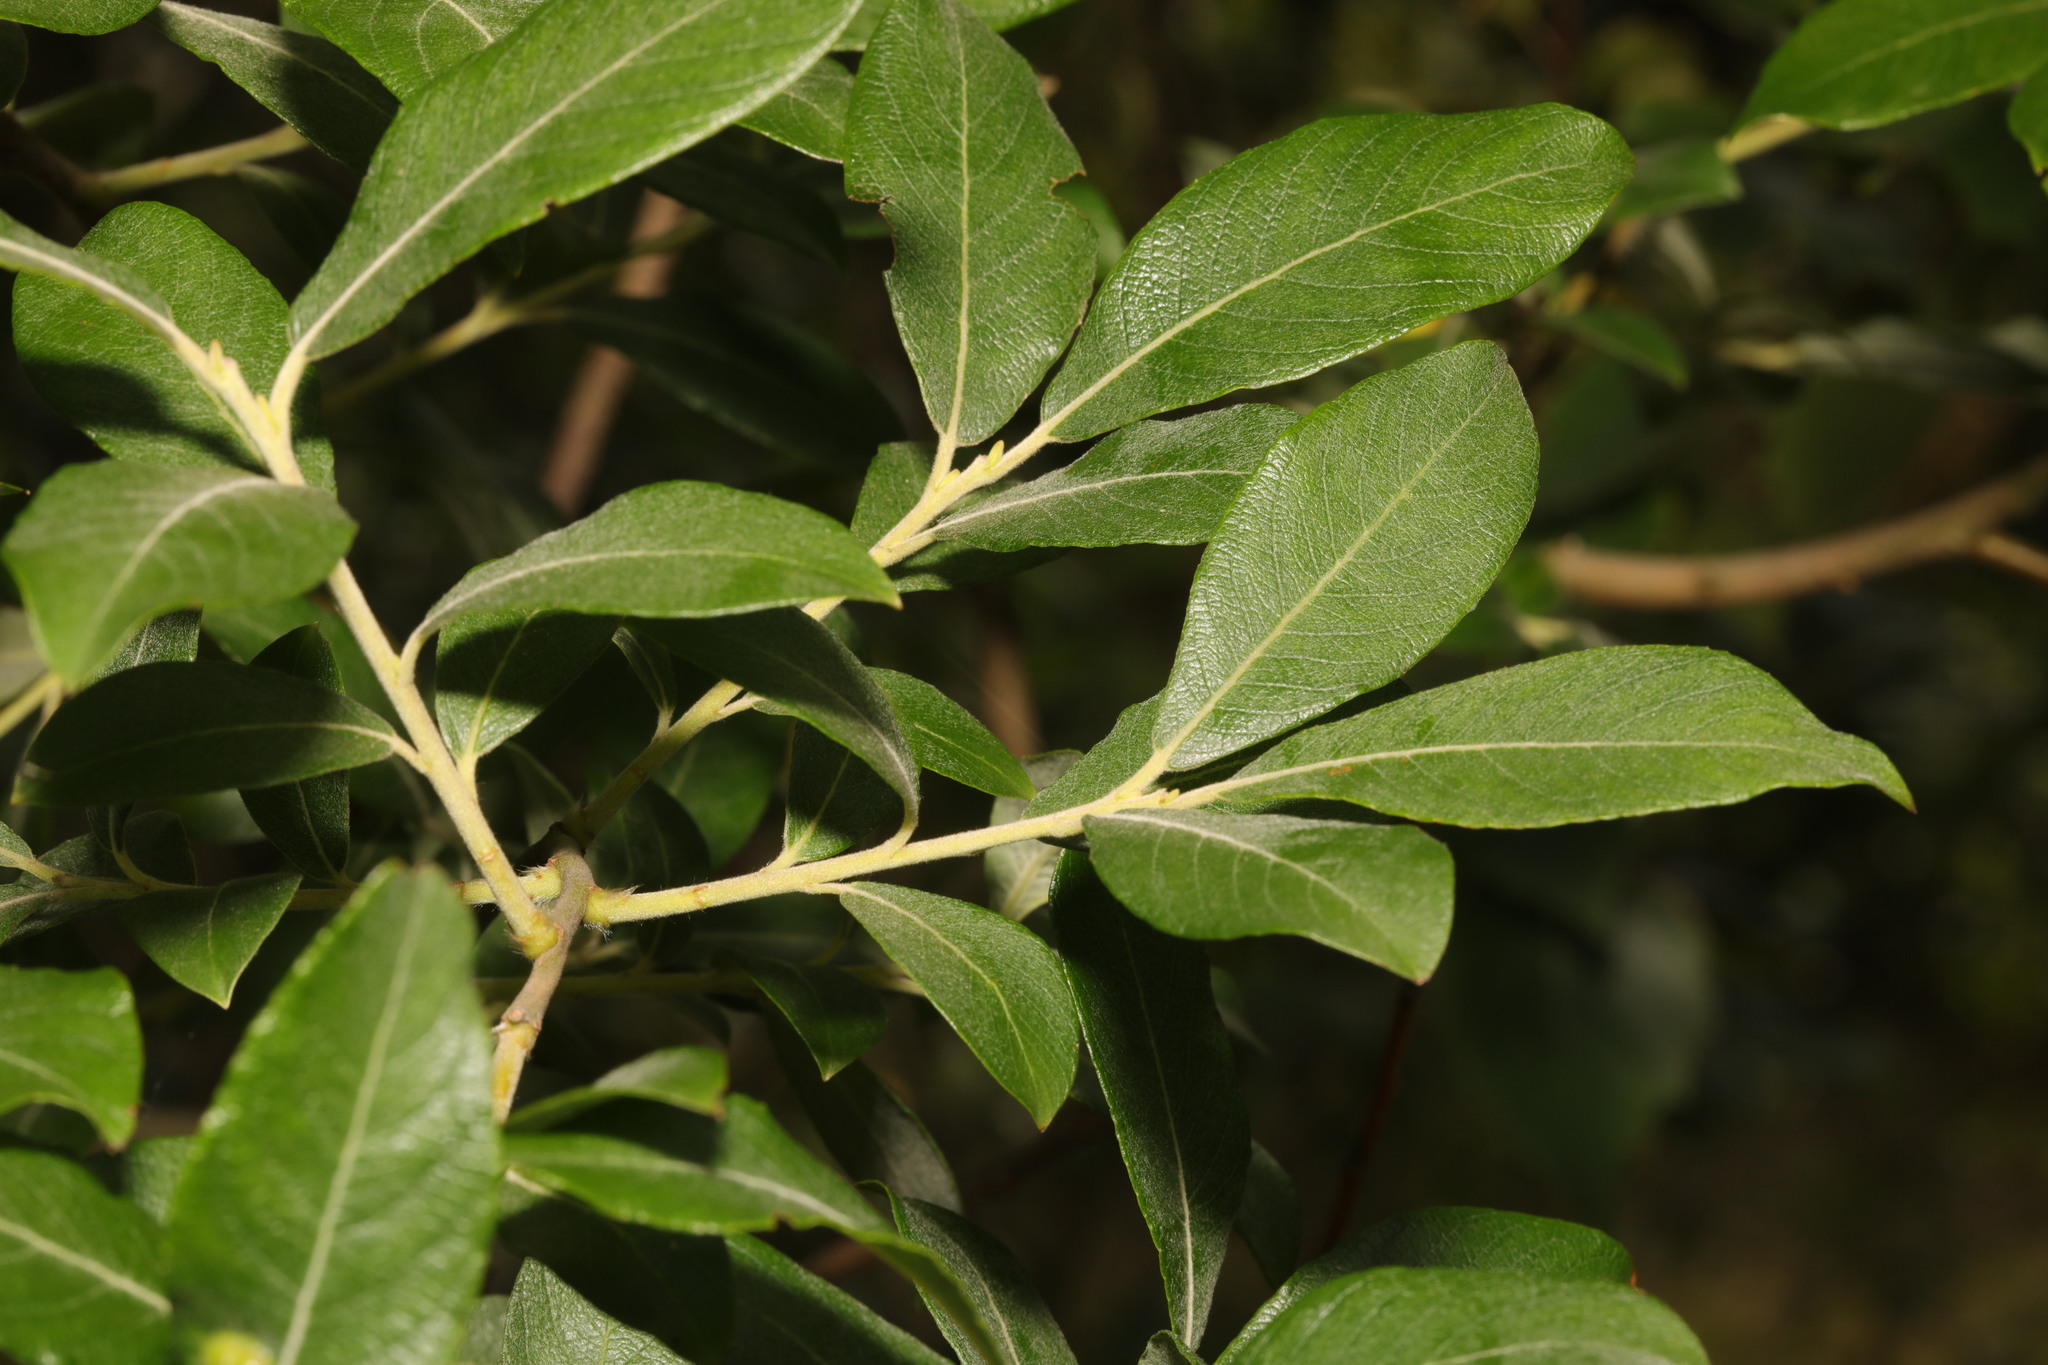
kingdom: Plantae
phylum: Tracheophyta
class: Magnoliopsida
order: Malpighiales
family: Salicaceae
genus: Salix
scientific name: Salix cinerea
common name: Common sallow
